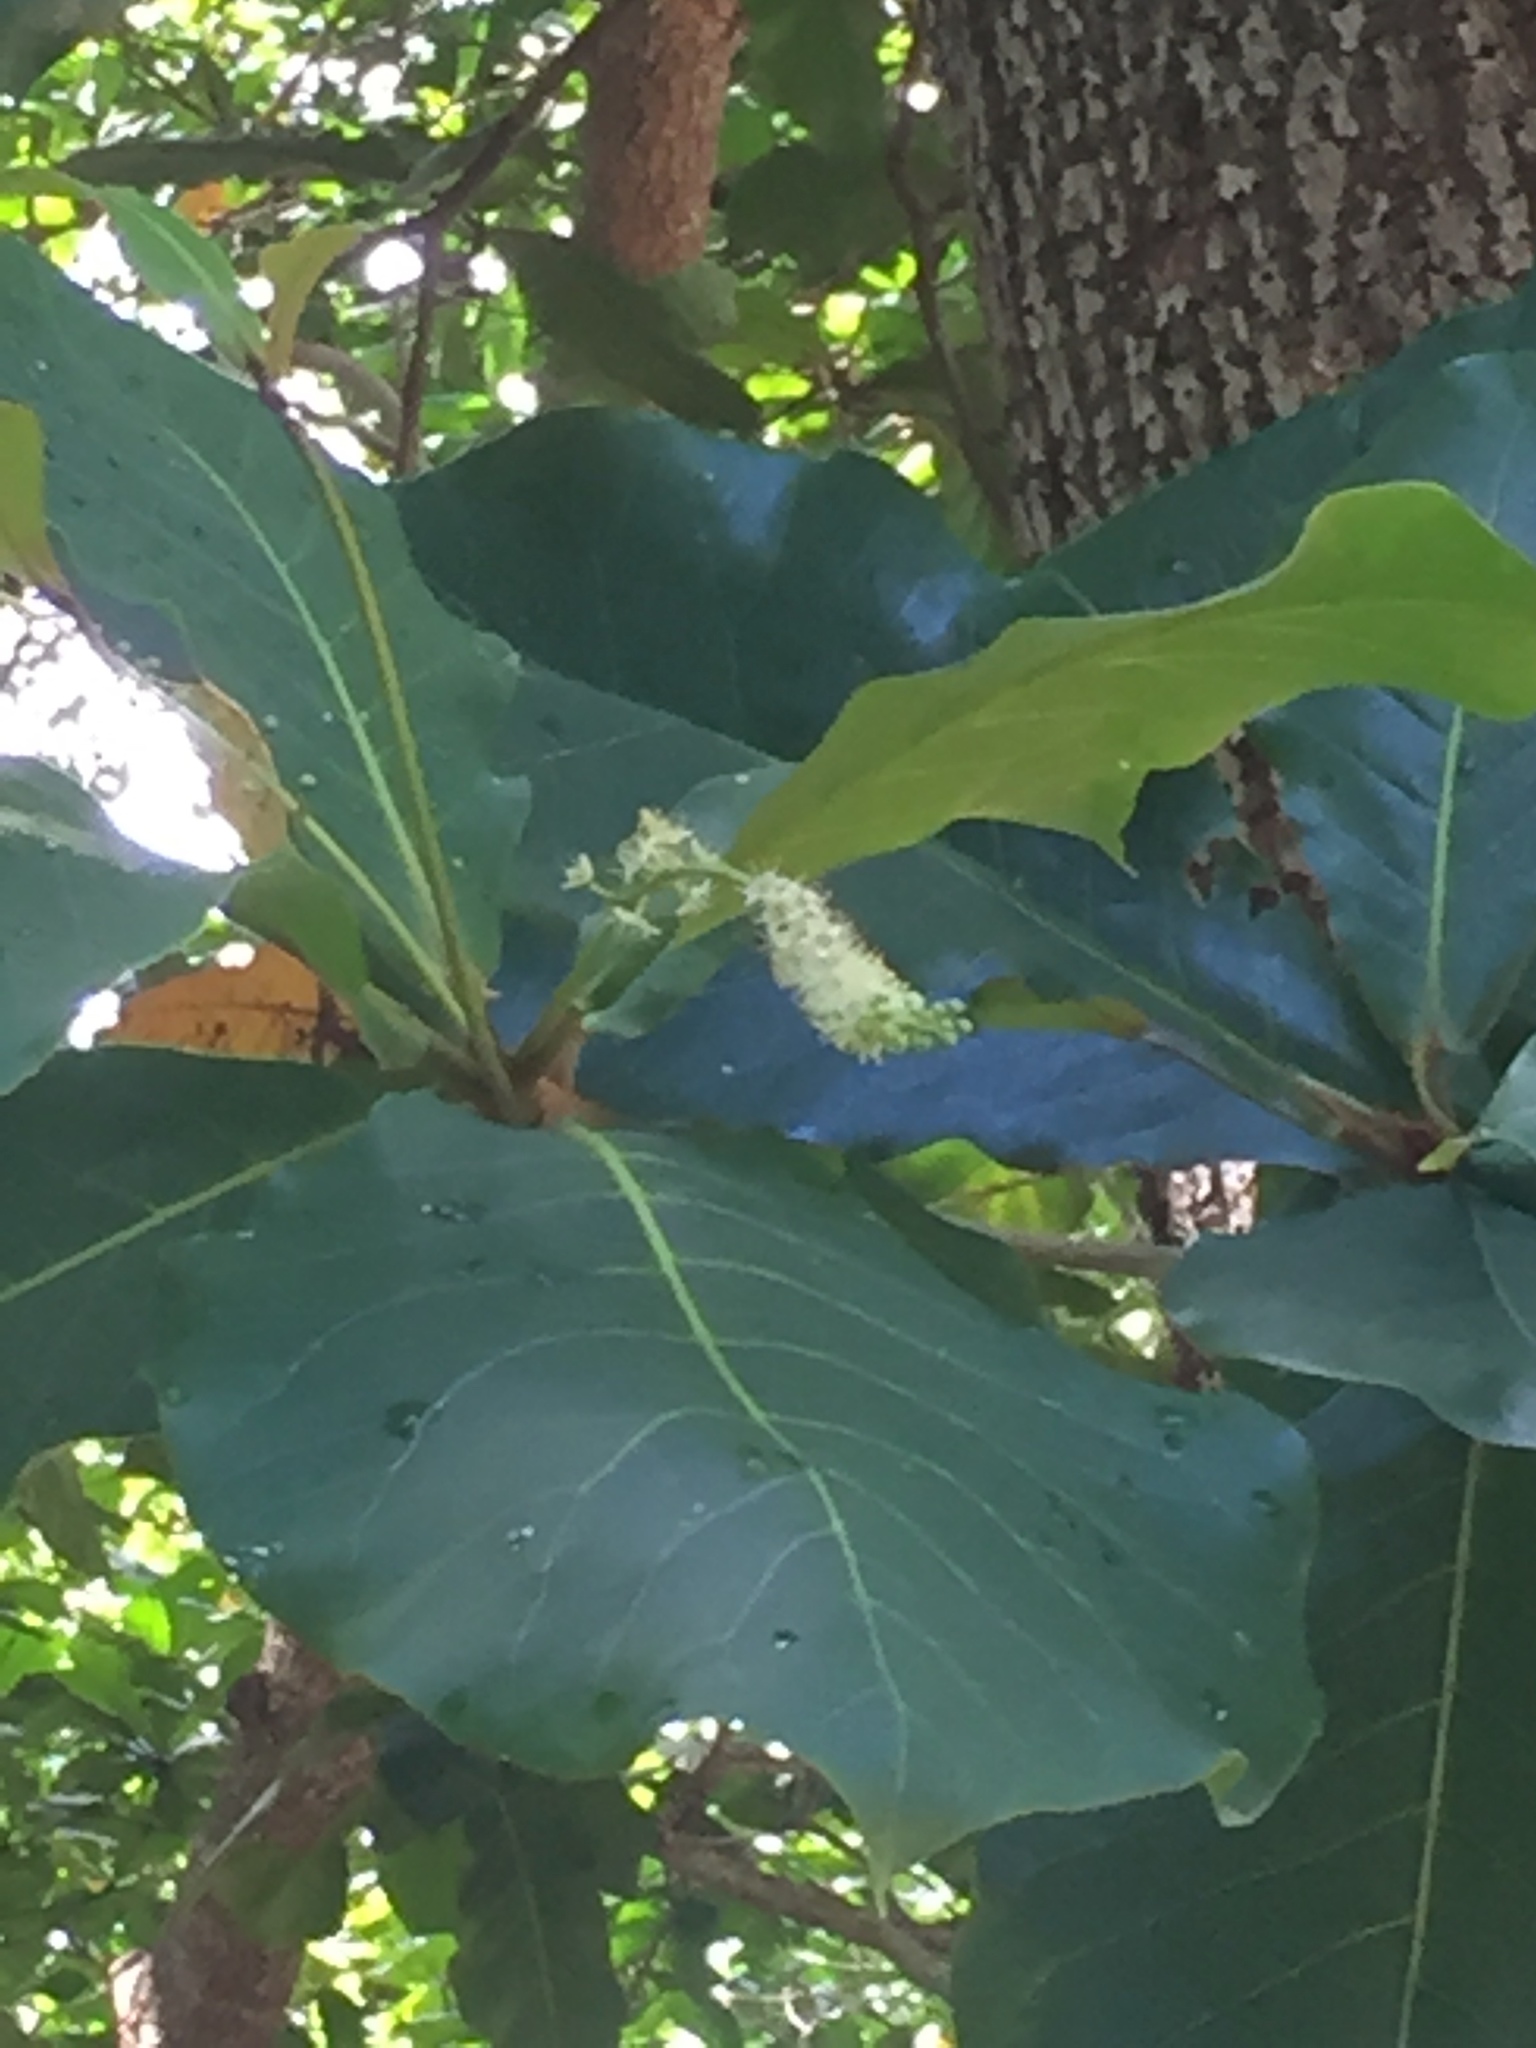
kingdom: Plantae
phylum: Tracheophyta
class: Magnoliopsida
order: Myrtales
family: Combretaceae
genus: Terminalia
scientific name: Terminalia catappa
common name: Tropical almond
